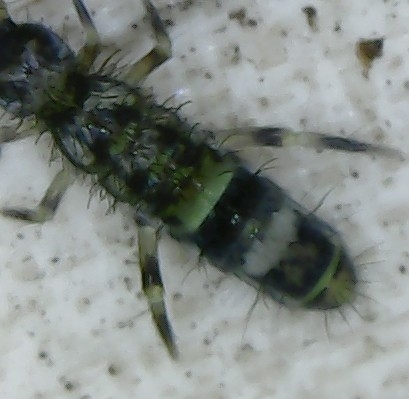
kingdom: Animalia
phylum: Arthropoda
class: Collembola
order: Entomobryomorpha
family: Orchesellidae
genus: Orchesella
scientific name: Orchesella cincta
